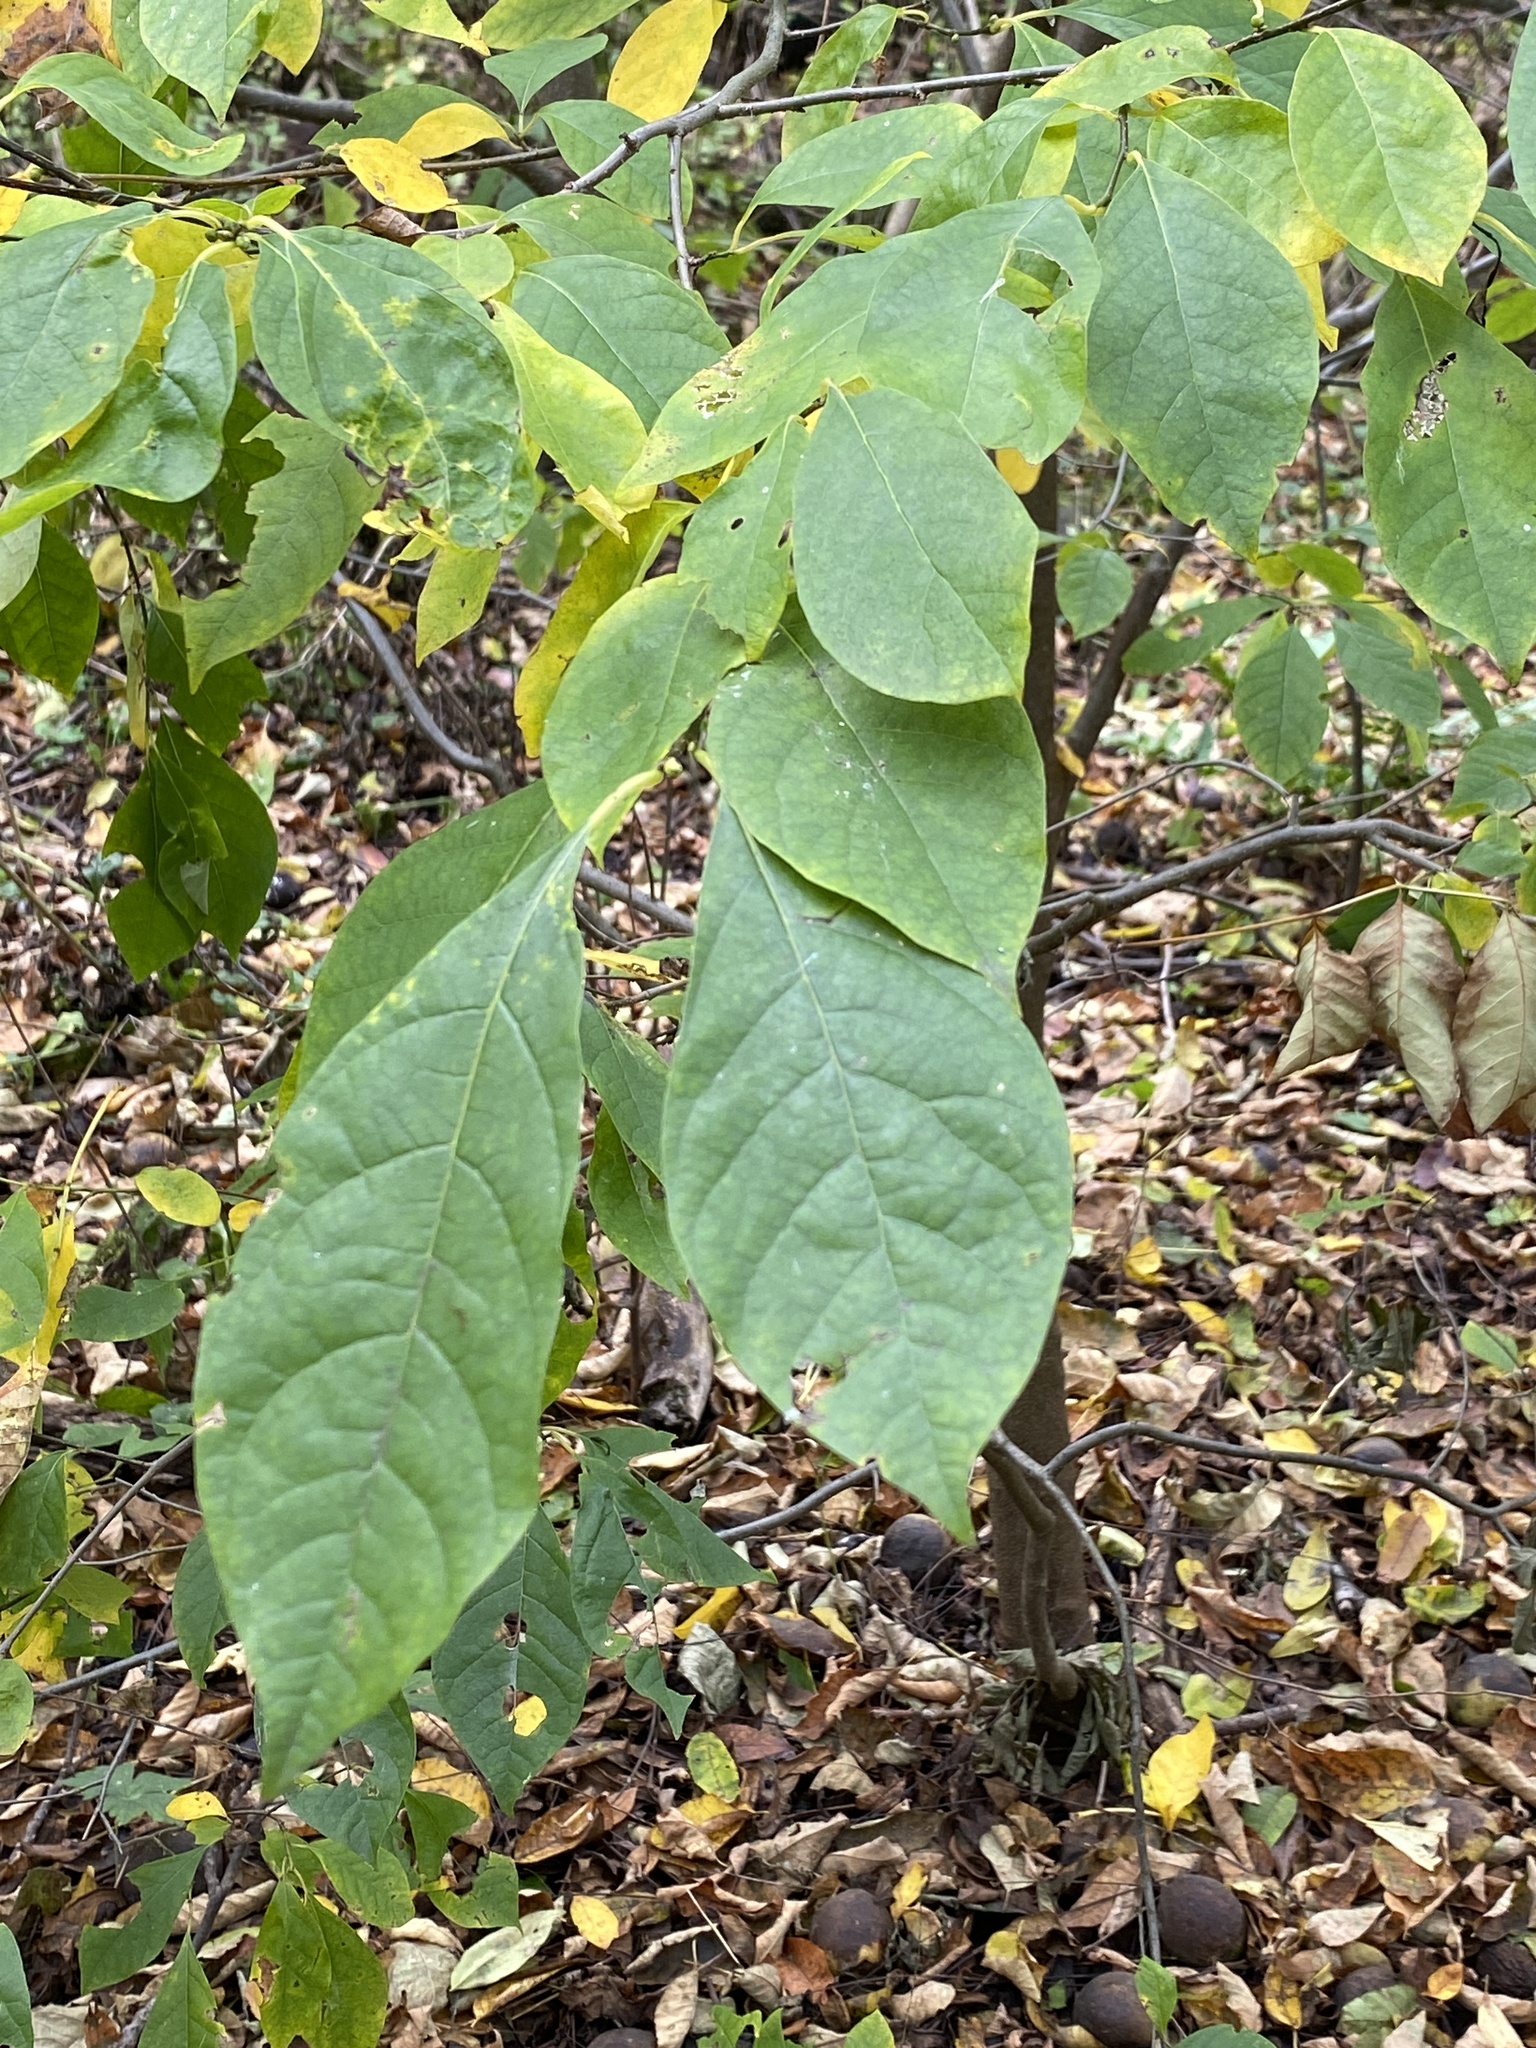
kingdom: Plantae
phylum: Tracheophyta
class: Magnoliopsida
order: Laurales
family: Lauraceae
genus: Lindera
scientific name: Lindera benzoin
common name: Spicebush
